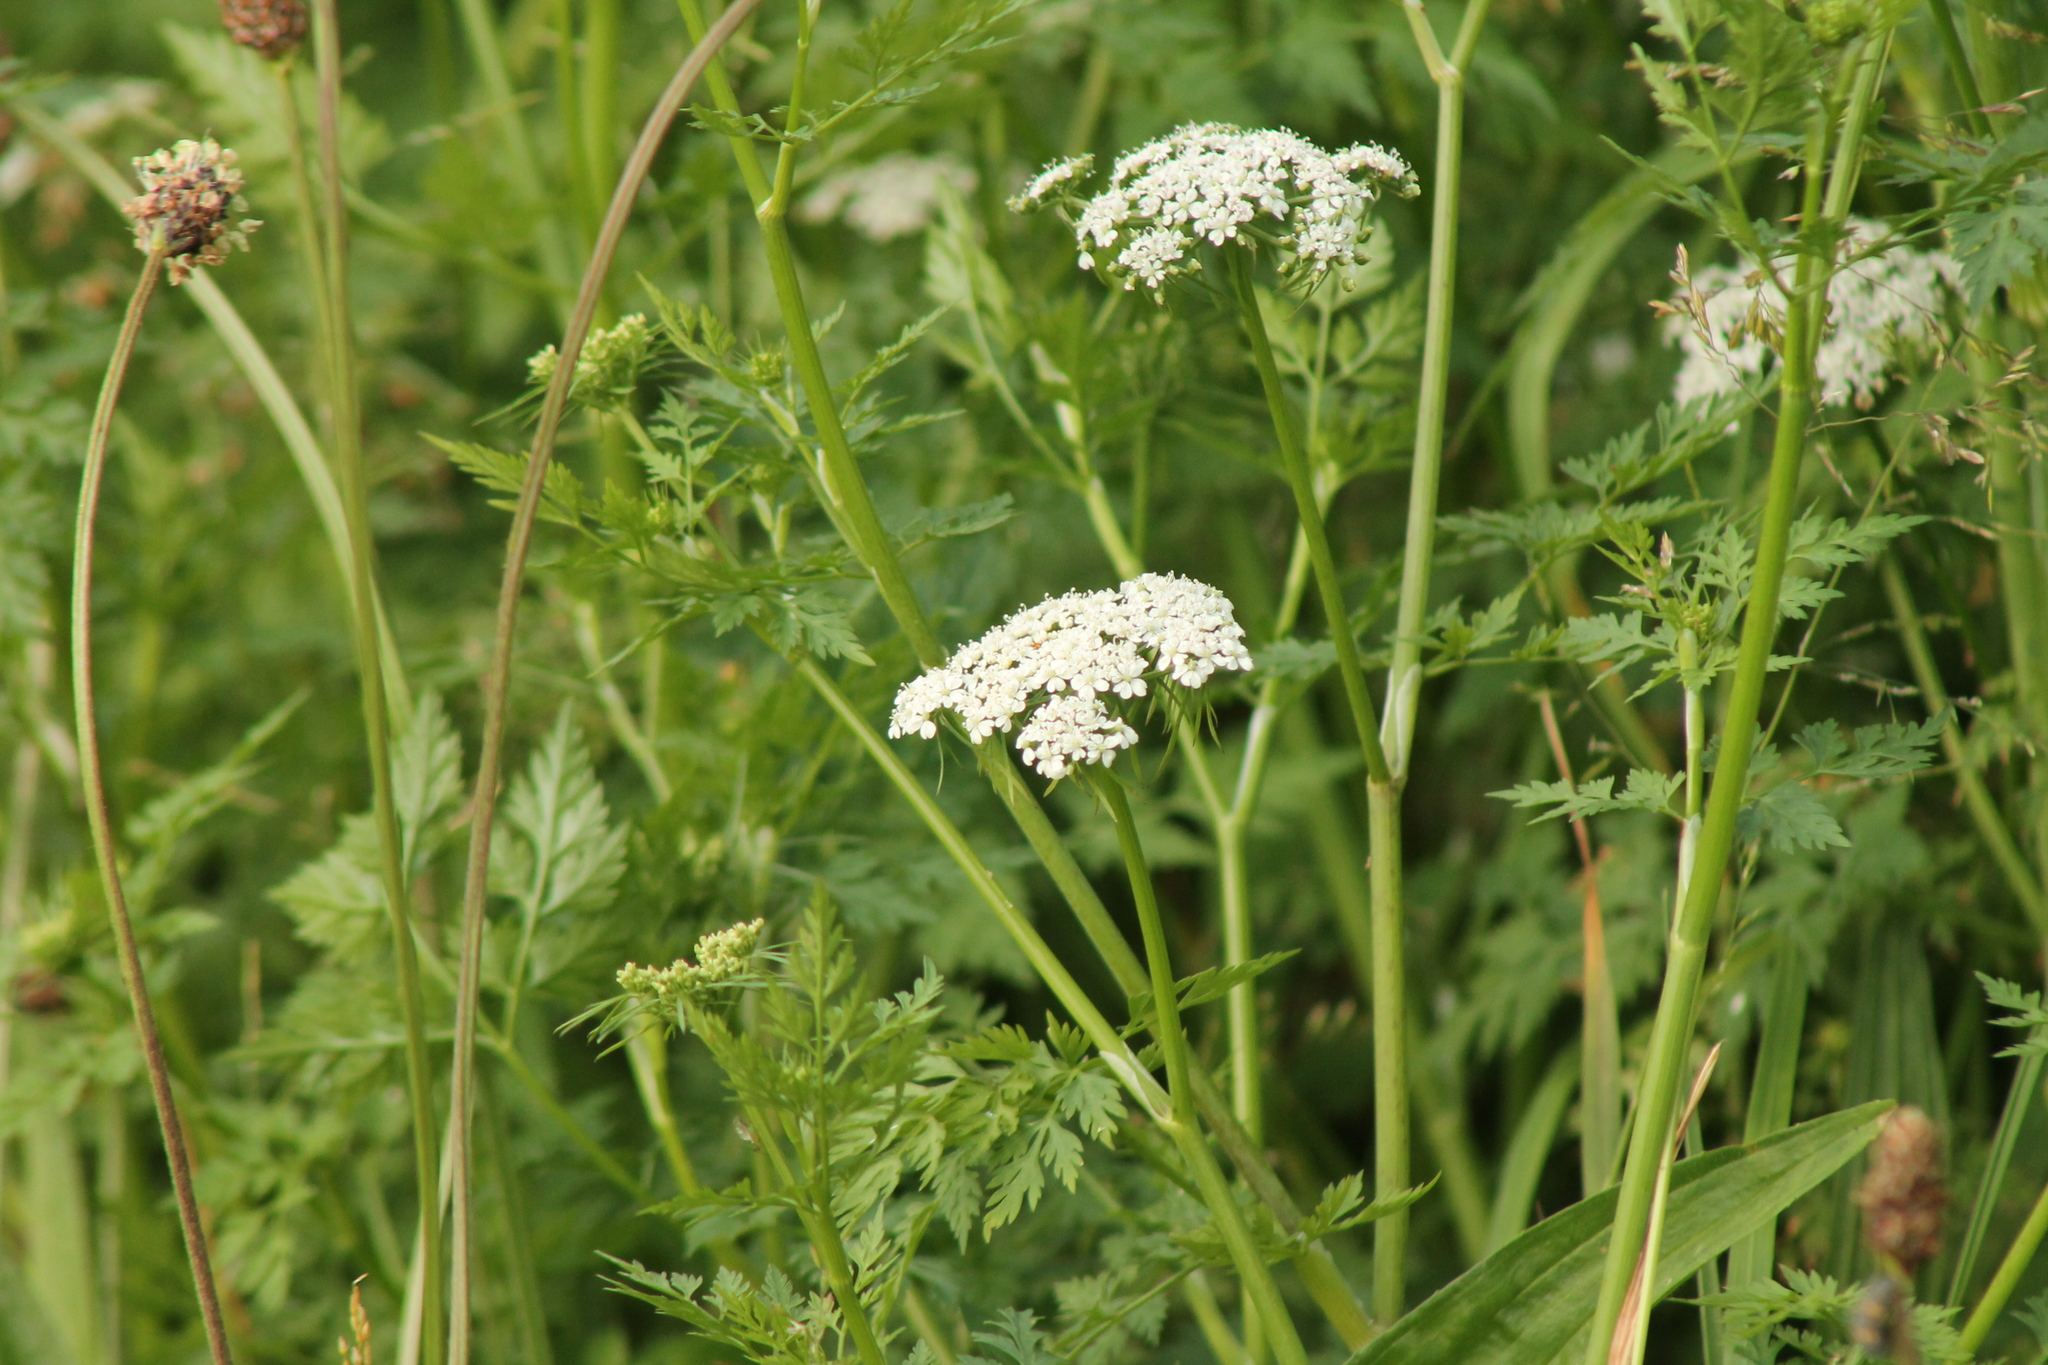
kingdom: Plantae
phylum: Tracheophyta
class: Magnoliopsida
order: Apiales
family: Apiaceae
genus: Aethusa
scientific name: Aethusa cynapium
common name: Fool's parsley
